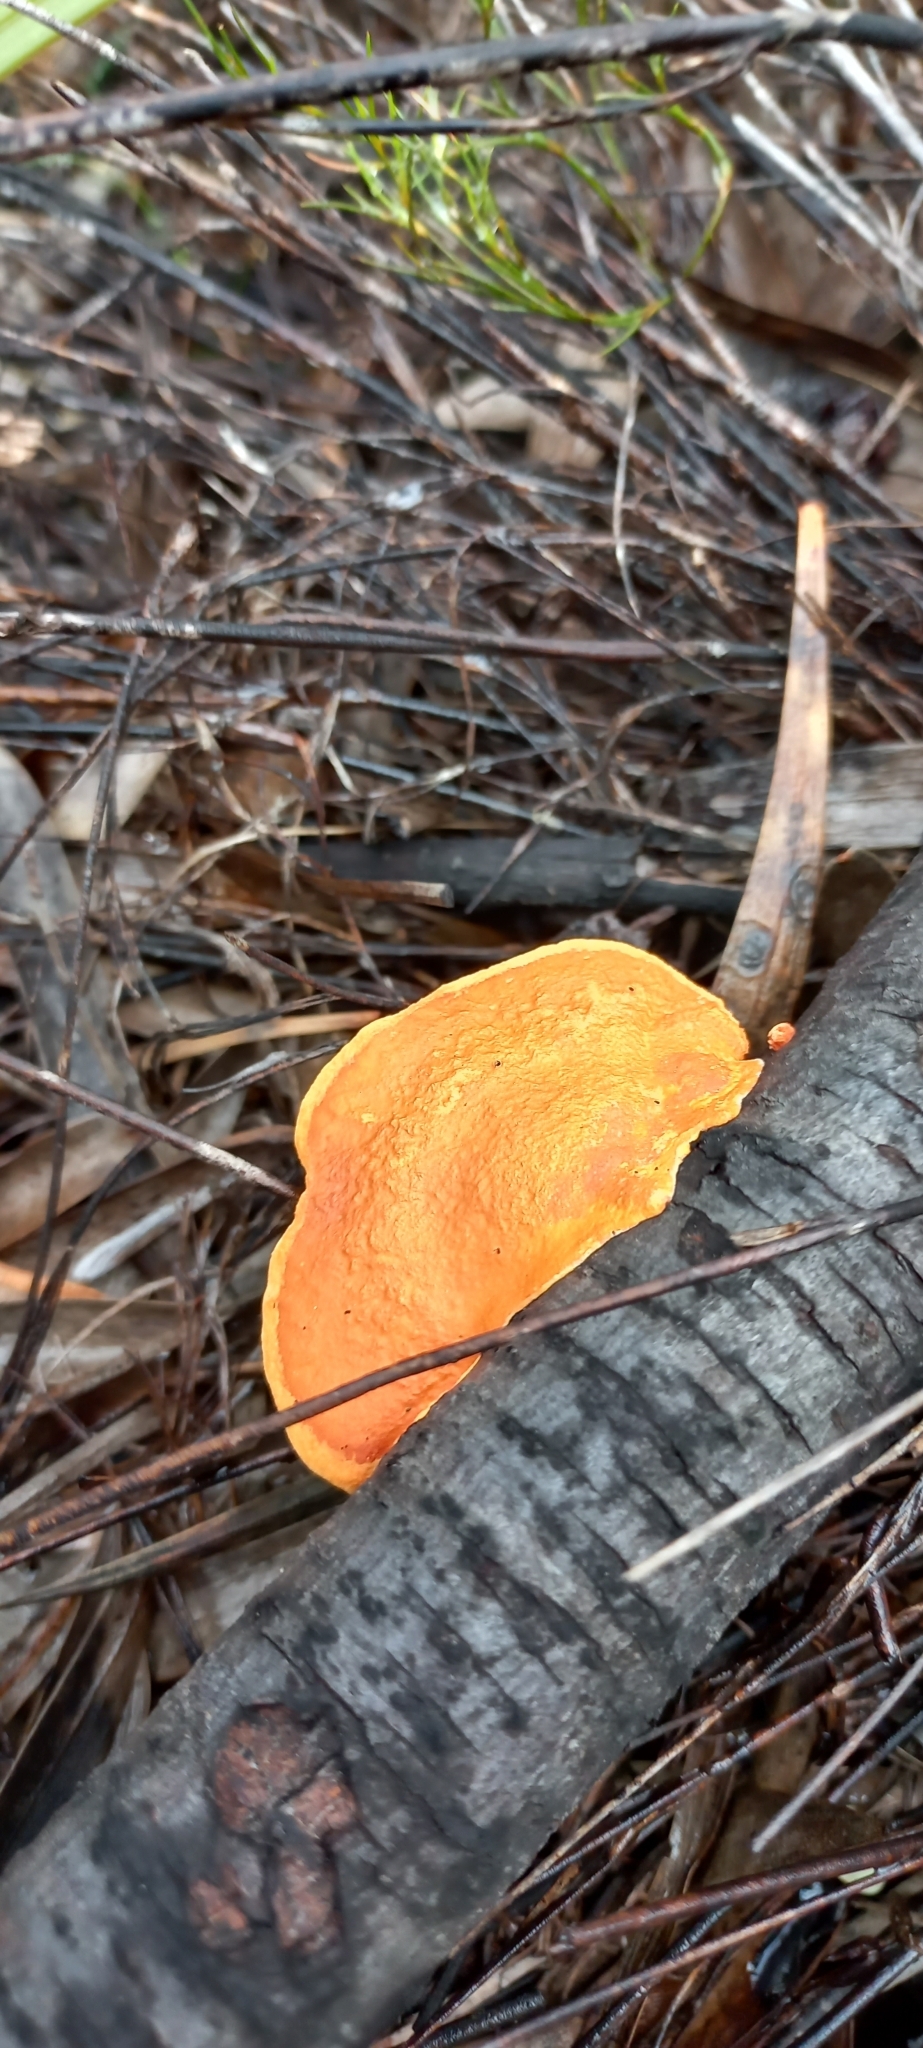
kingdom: Fungi
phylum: Basidiomycota
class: Agaricomycetes
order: Polyporales
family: Polyporaceae
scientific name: Polyporaceae
